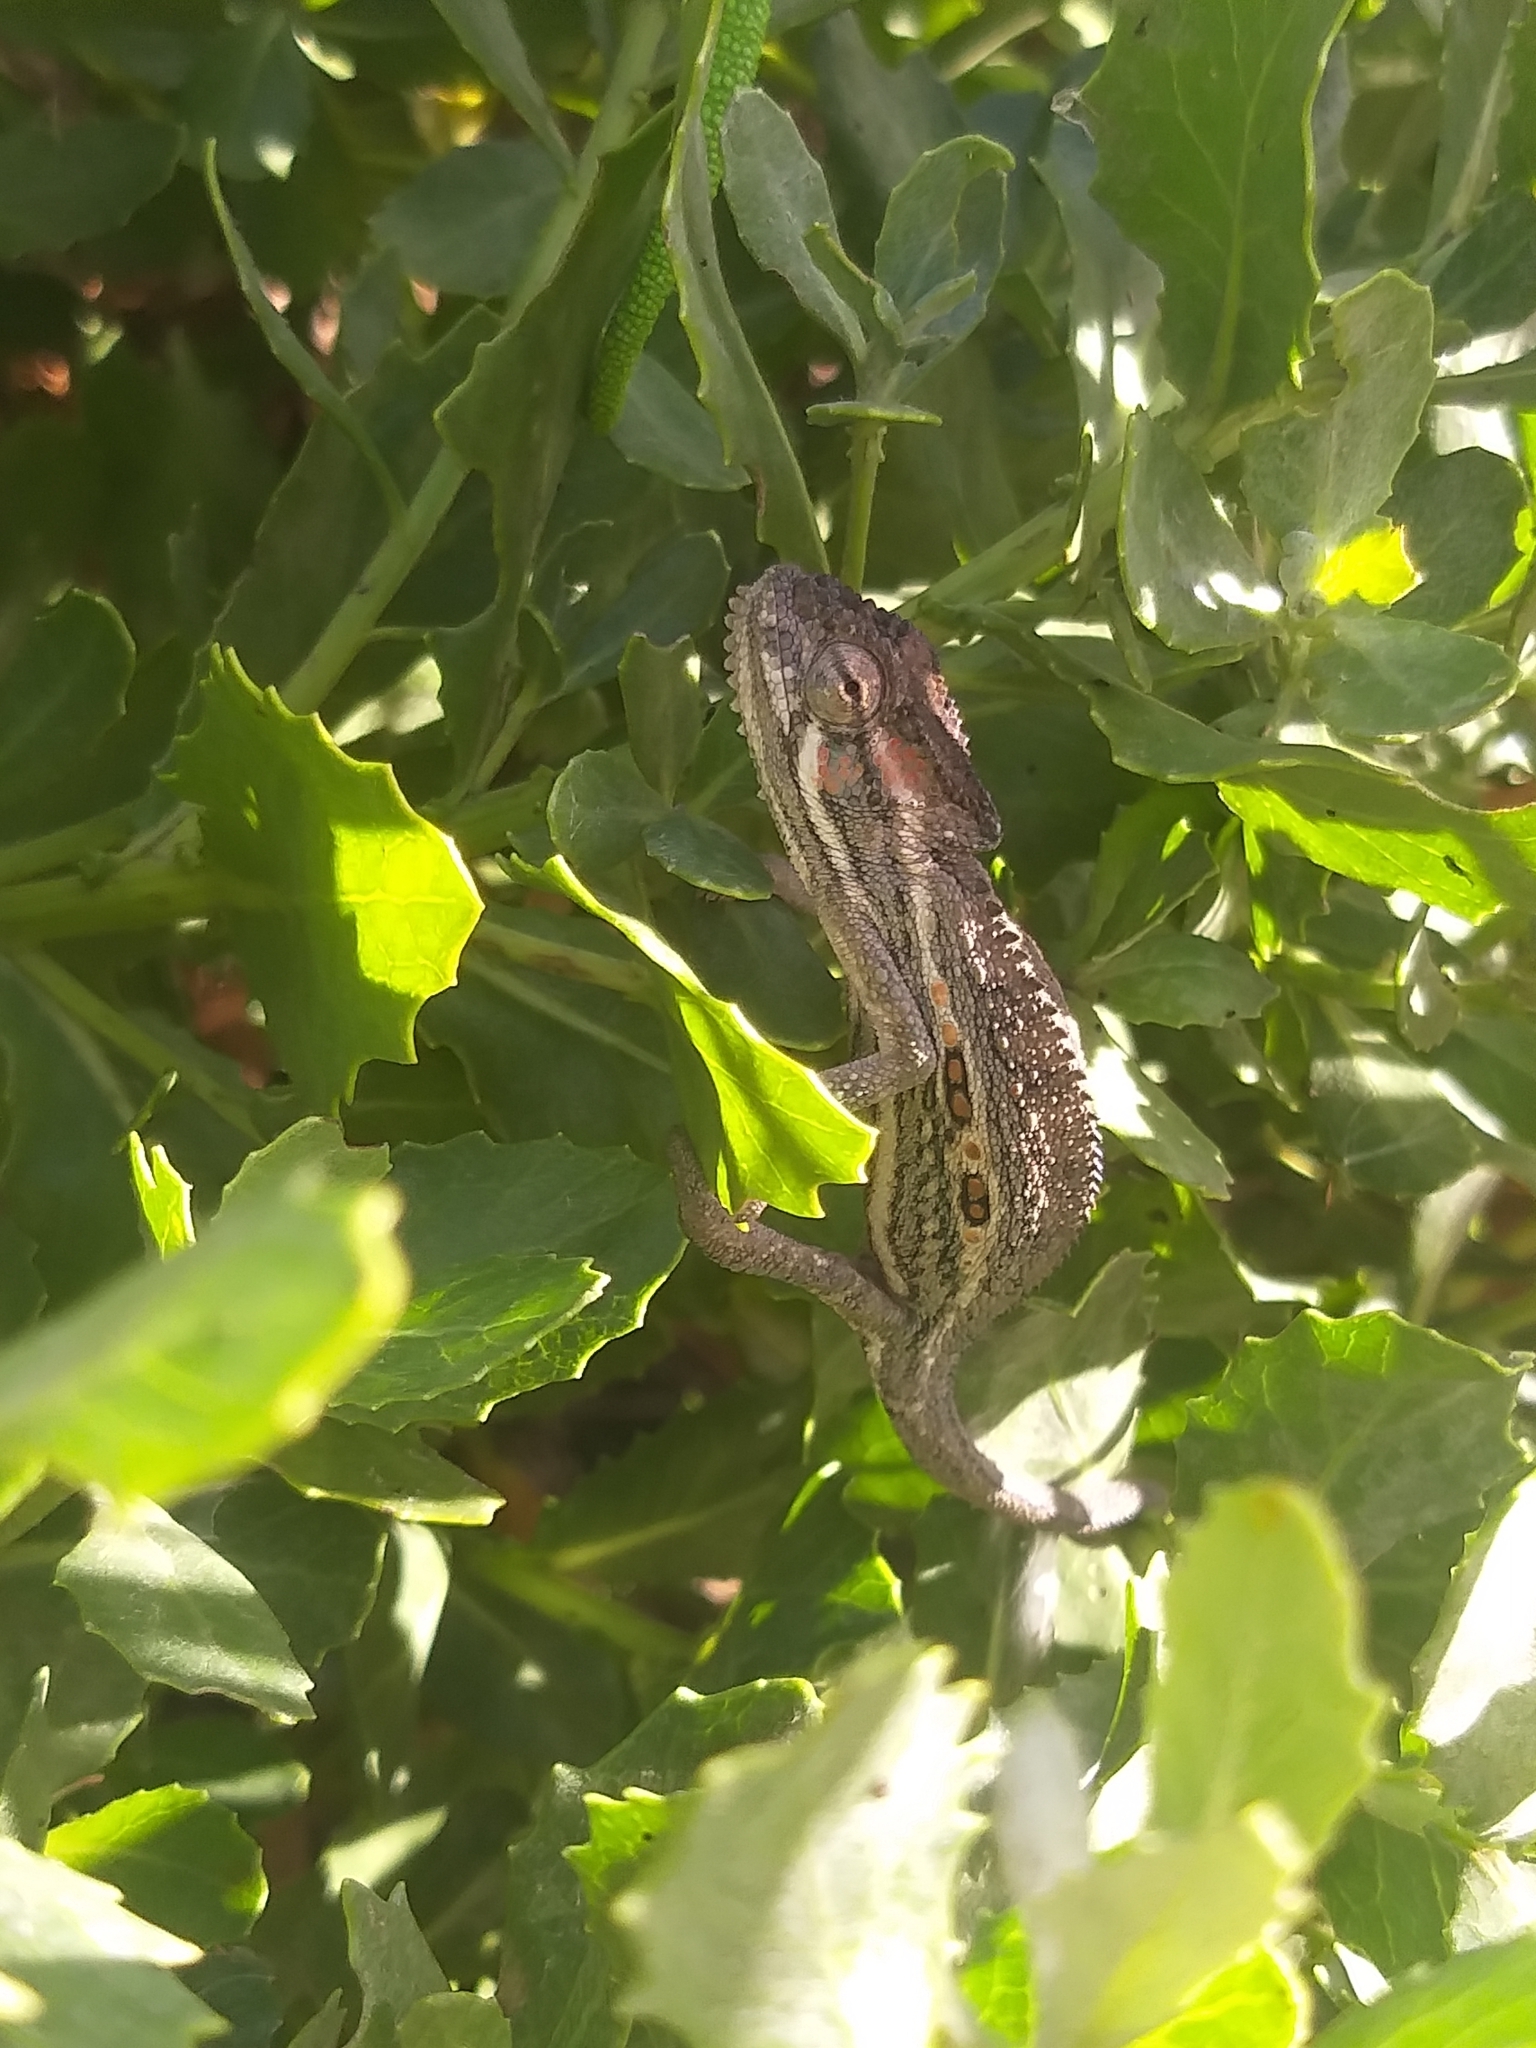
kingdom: Animalia
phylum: Chordata
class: Squamata
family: Chamaeleonidae
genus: Bradypodion
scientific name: Bradypodion pumilum
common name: Cape dwarf chameleon
